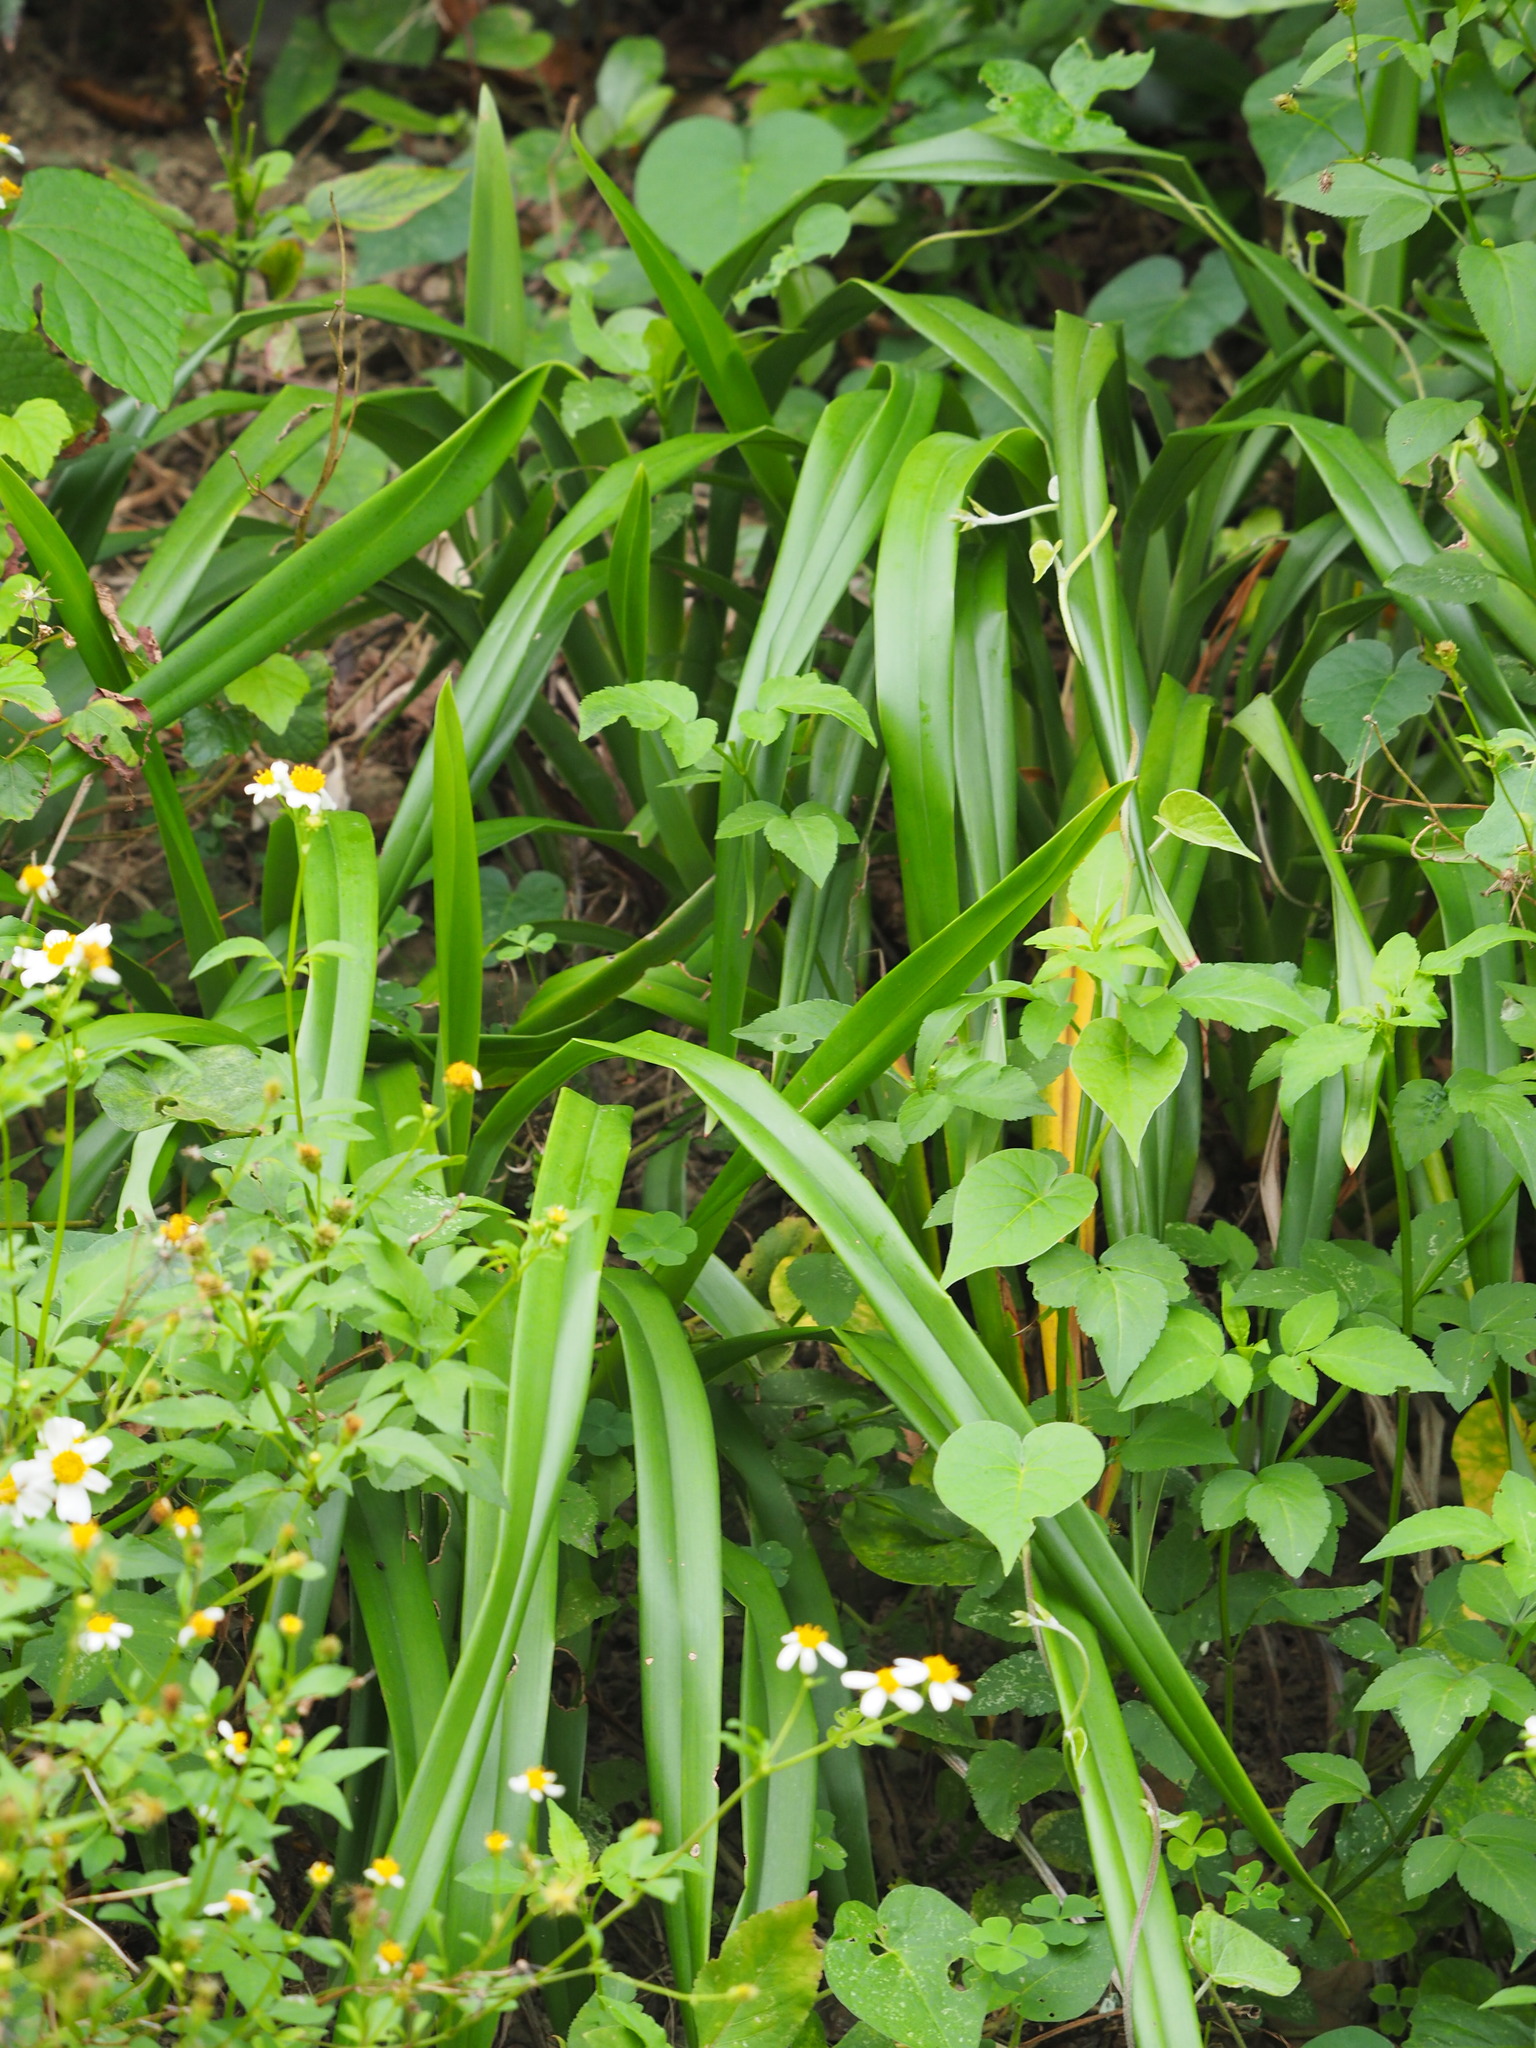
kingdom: Plantae
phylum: Tracheophyta
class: Liliopsida
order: Asparagales
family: Asphodelaceae
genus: Dianella
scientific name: Dianella ensifolia
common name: New zealand lilyplant
